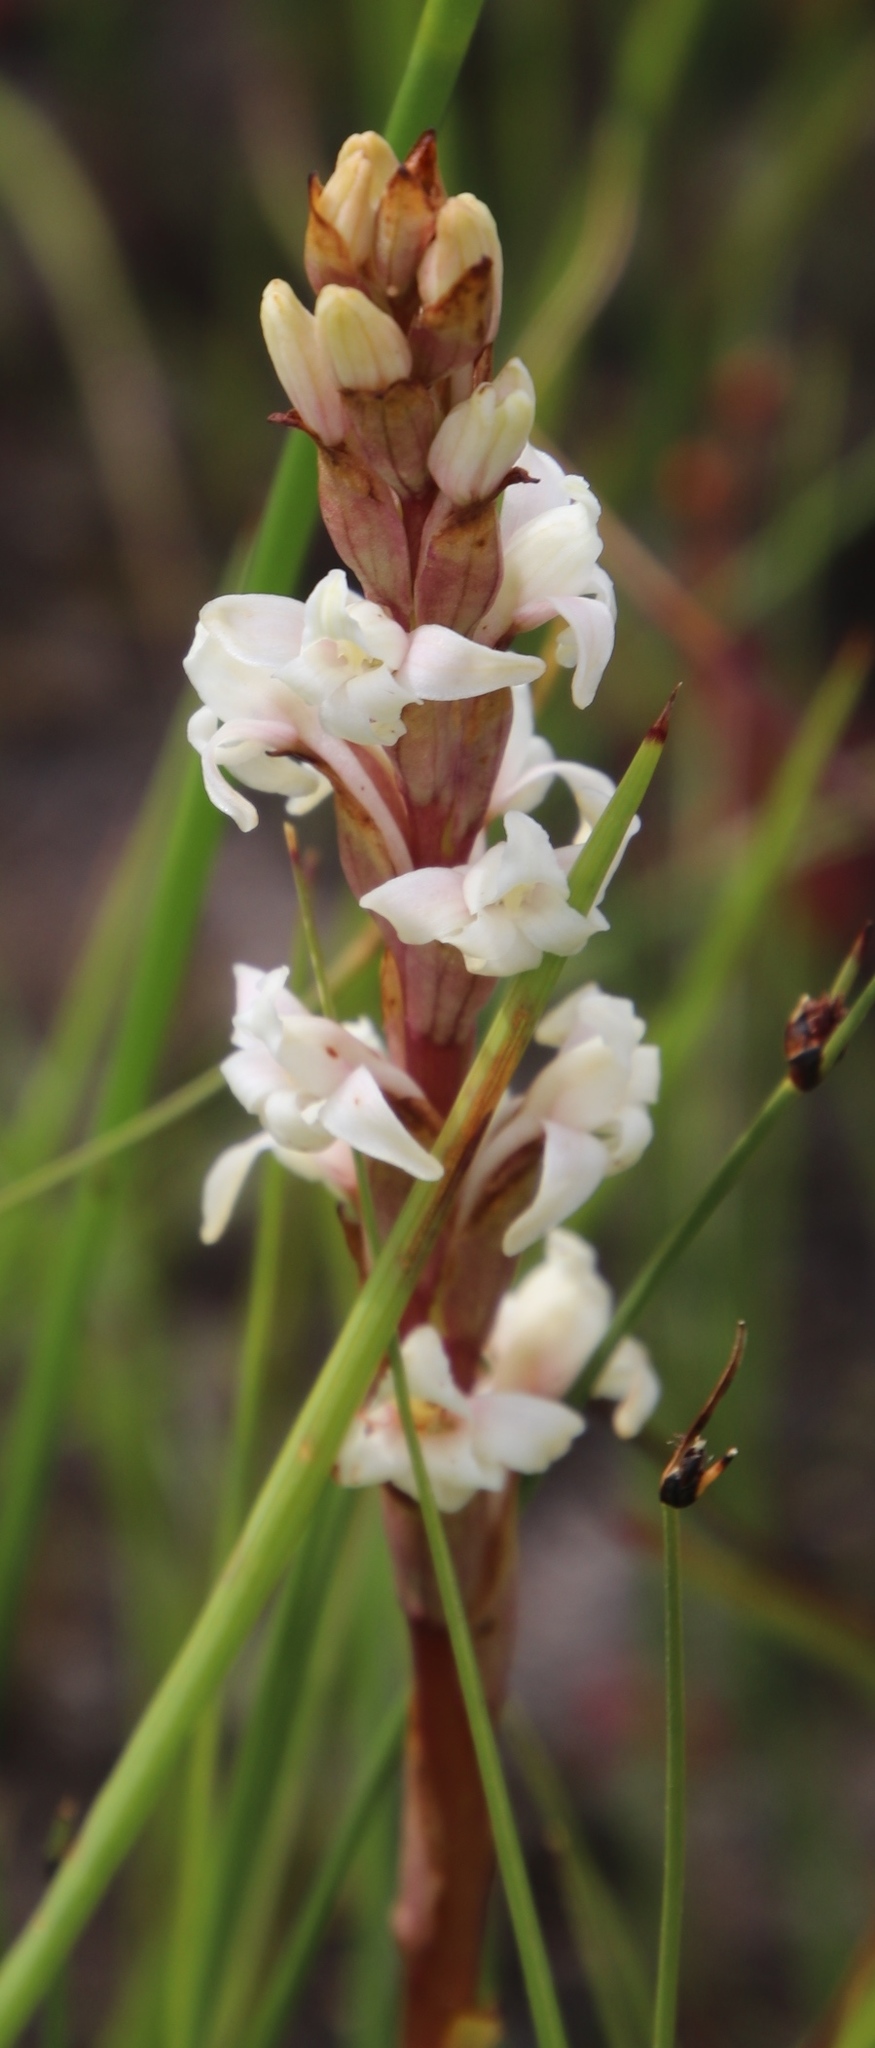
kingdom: Plantae
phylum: Tracheophyta
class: Liliopsida
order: Asparagales
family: Orchidaceae
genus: Satyrium
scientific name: Satyrium stenopetalum
